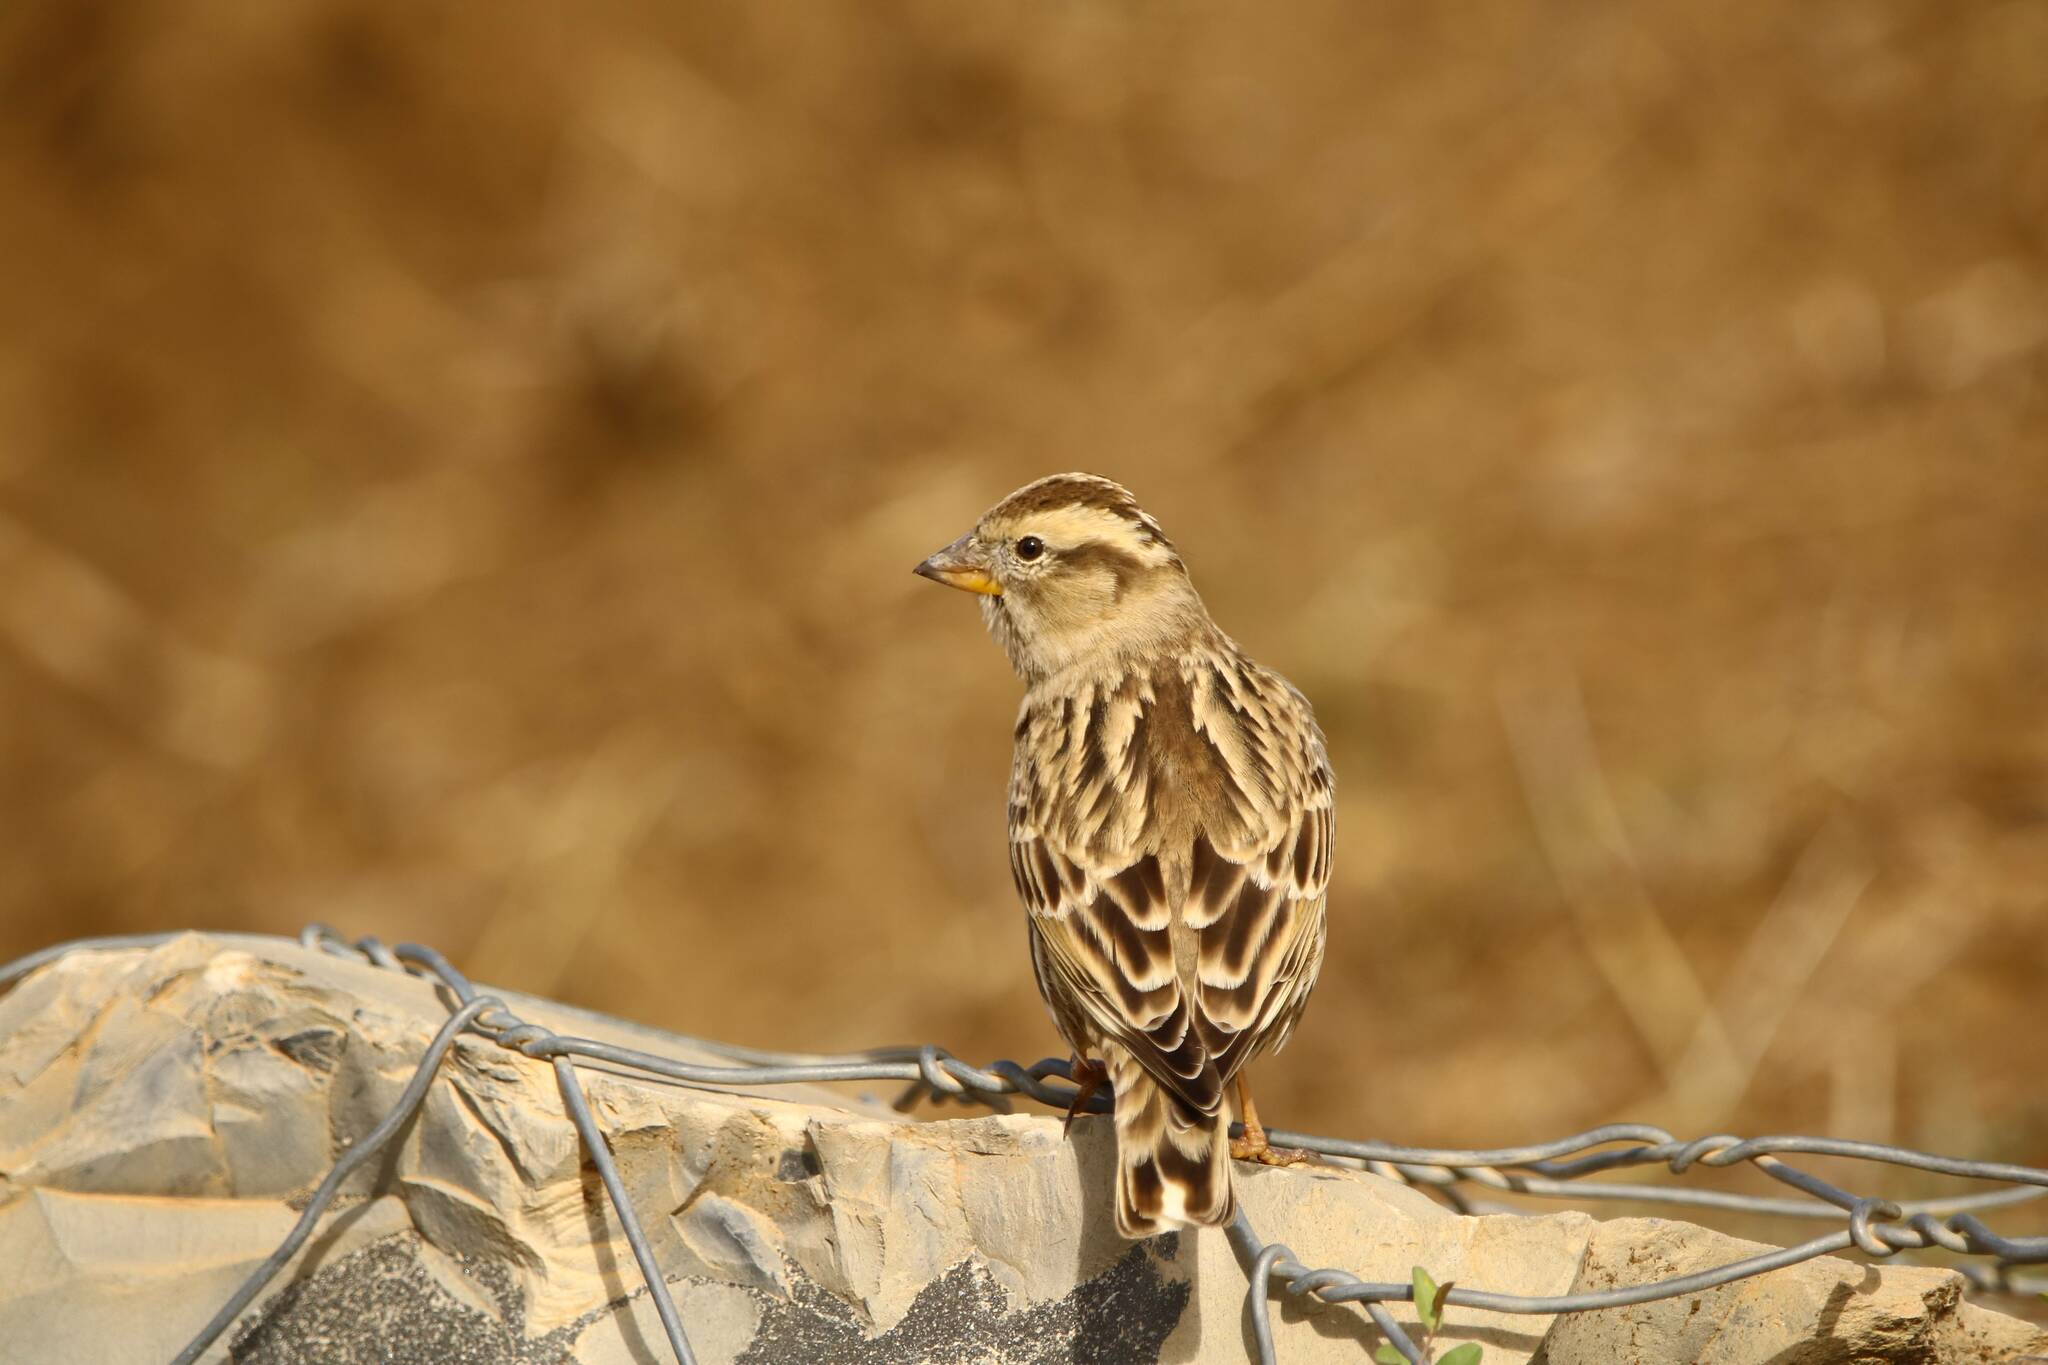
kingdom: Animalia
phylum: Chordata
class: Aves
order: Passeriformes
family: Passeridae
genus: Petronia
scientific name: Petronia petronia
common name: Rock sparrow
